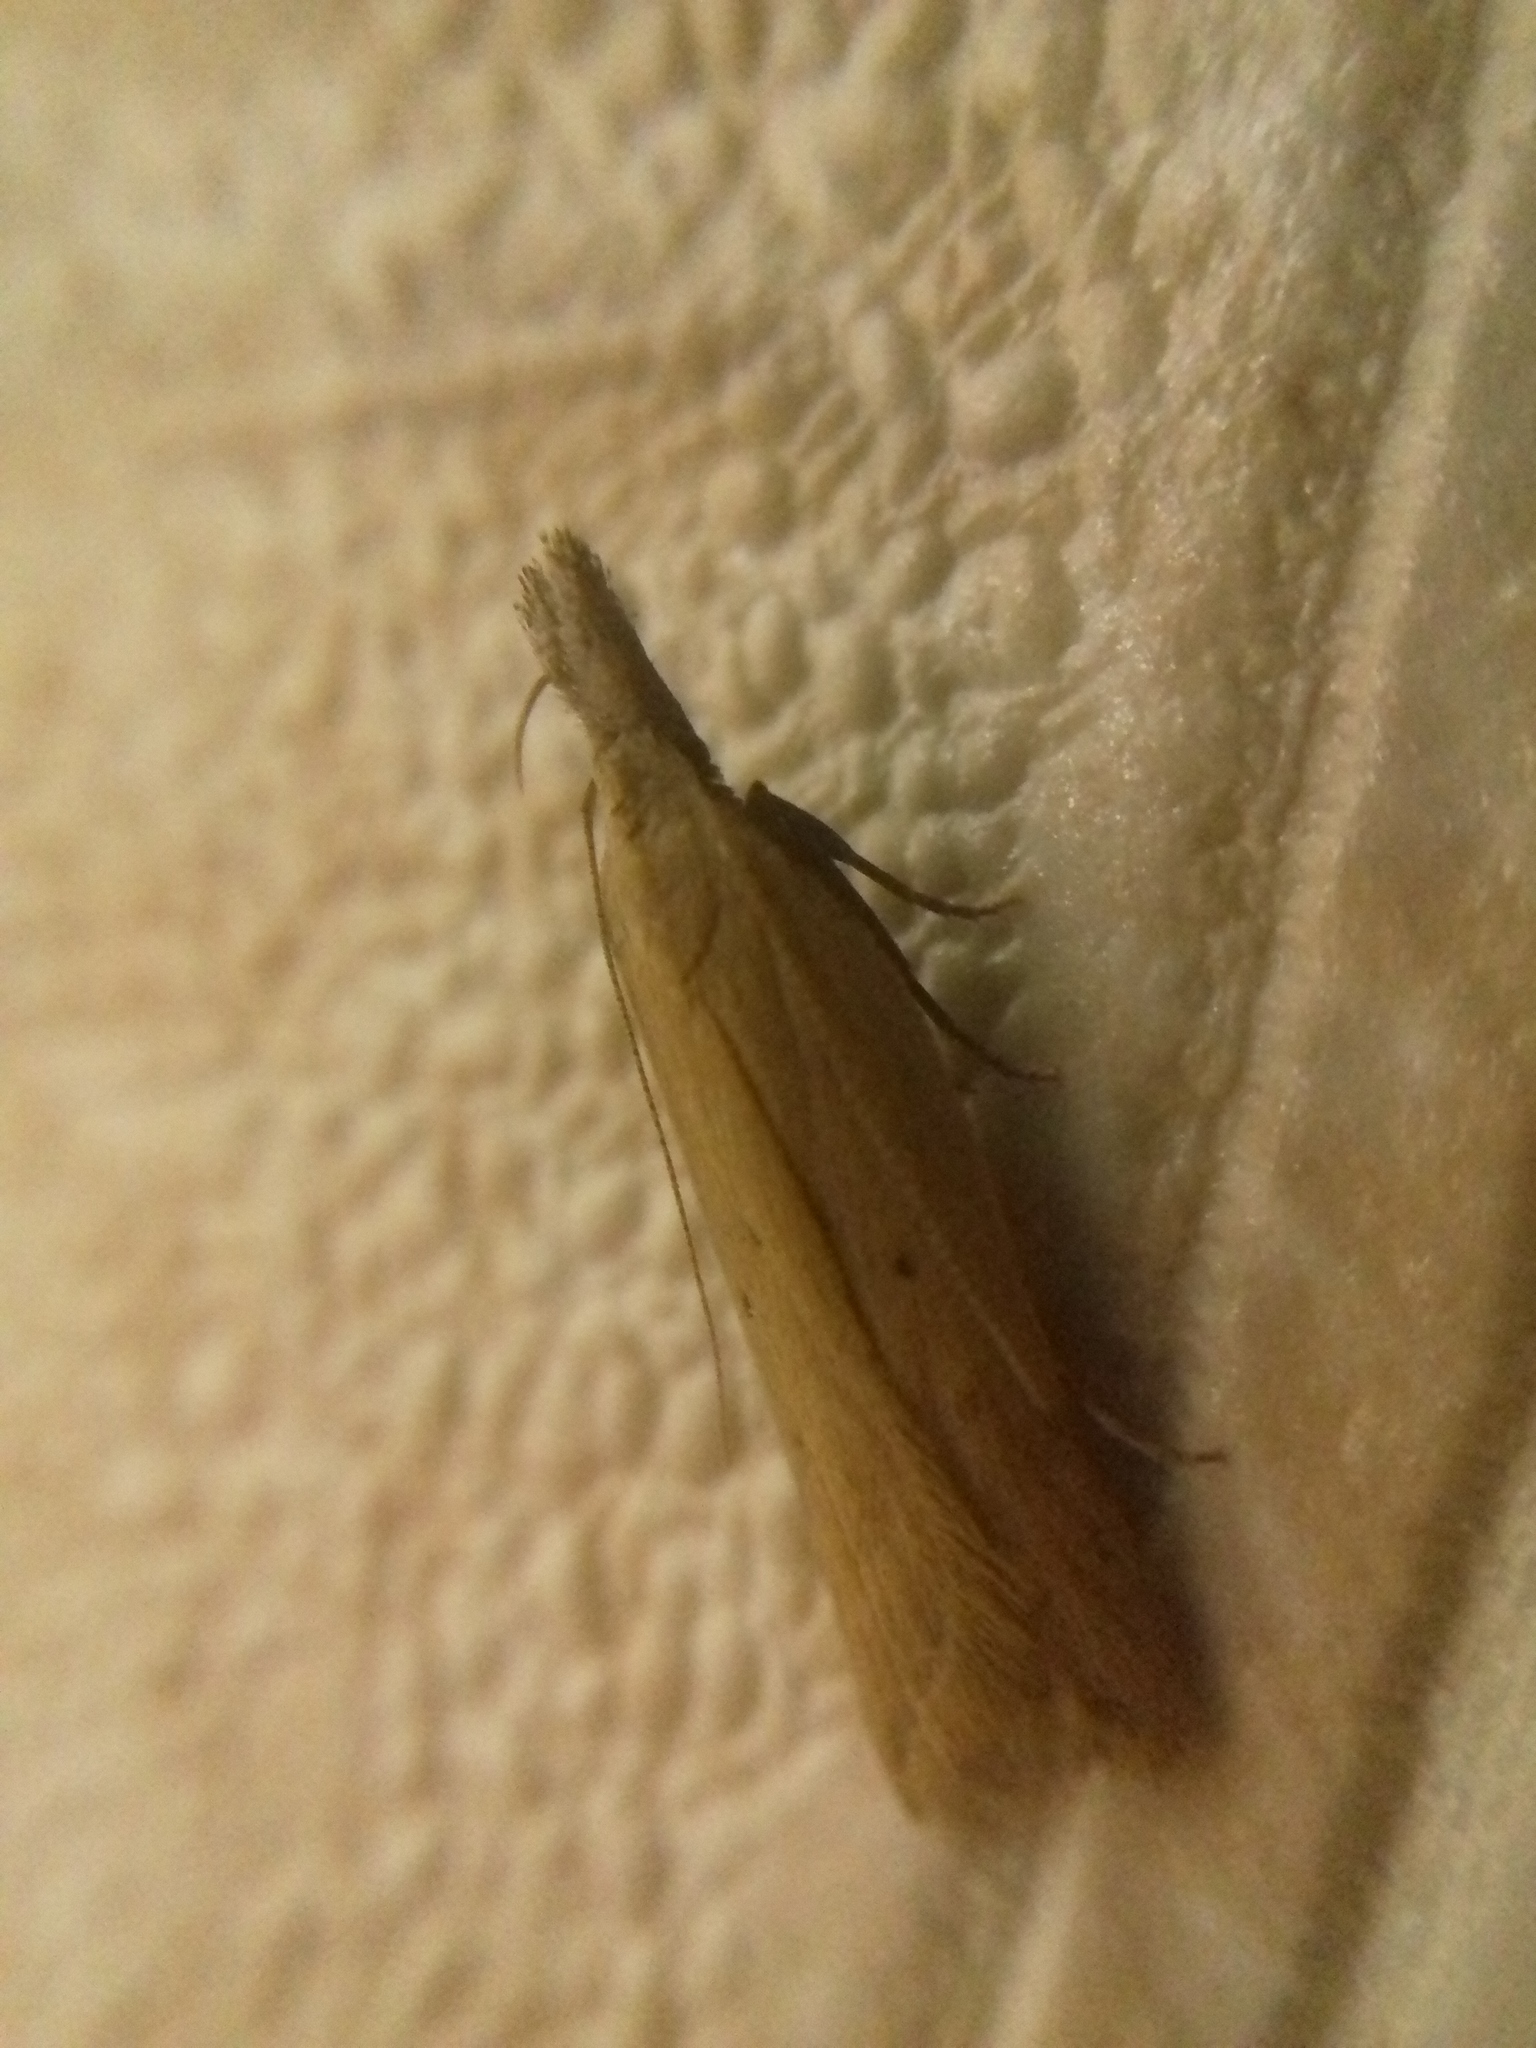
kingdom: Animalia
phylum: Arthropoda
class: Insecta
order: Lepidoptera
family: Gelechiidae
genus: Dichomeris
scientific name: Dichomeris limosellus
